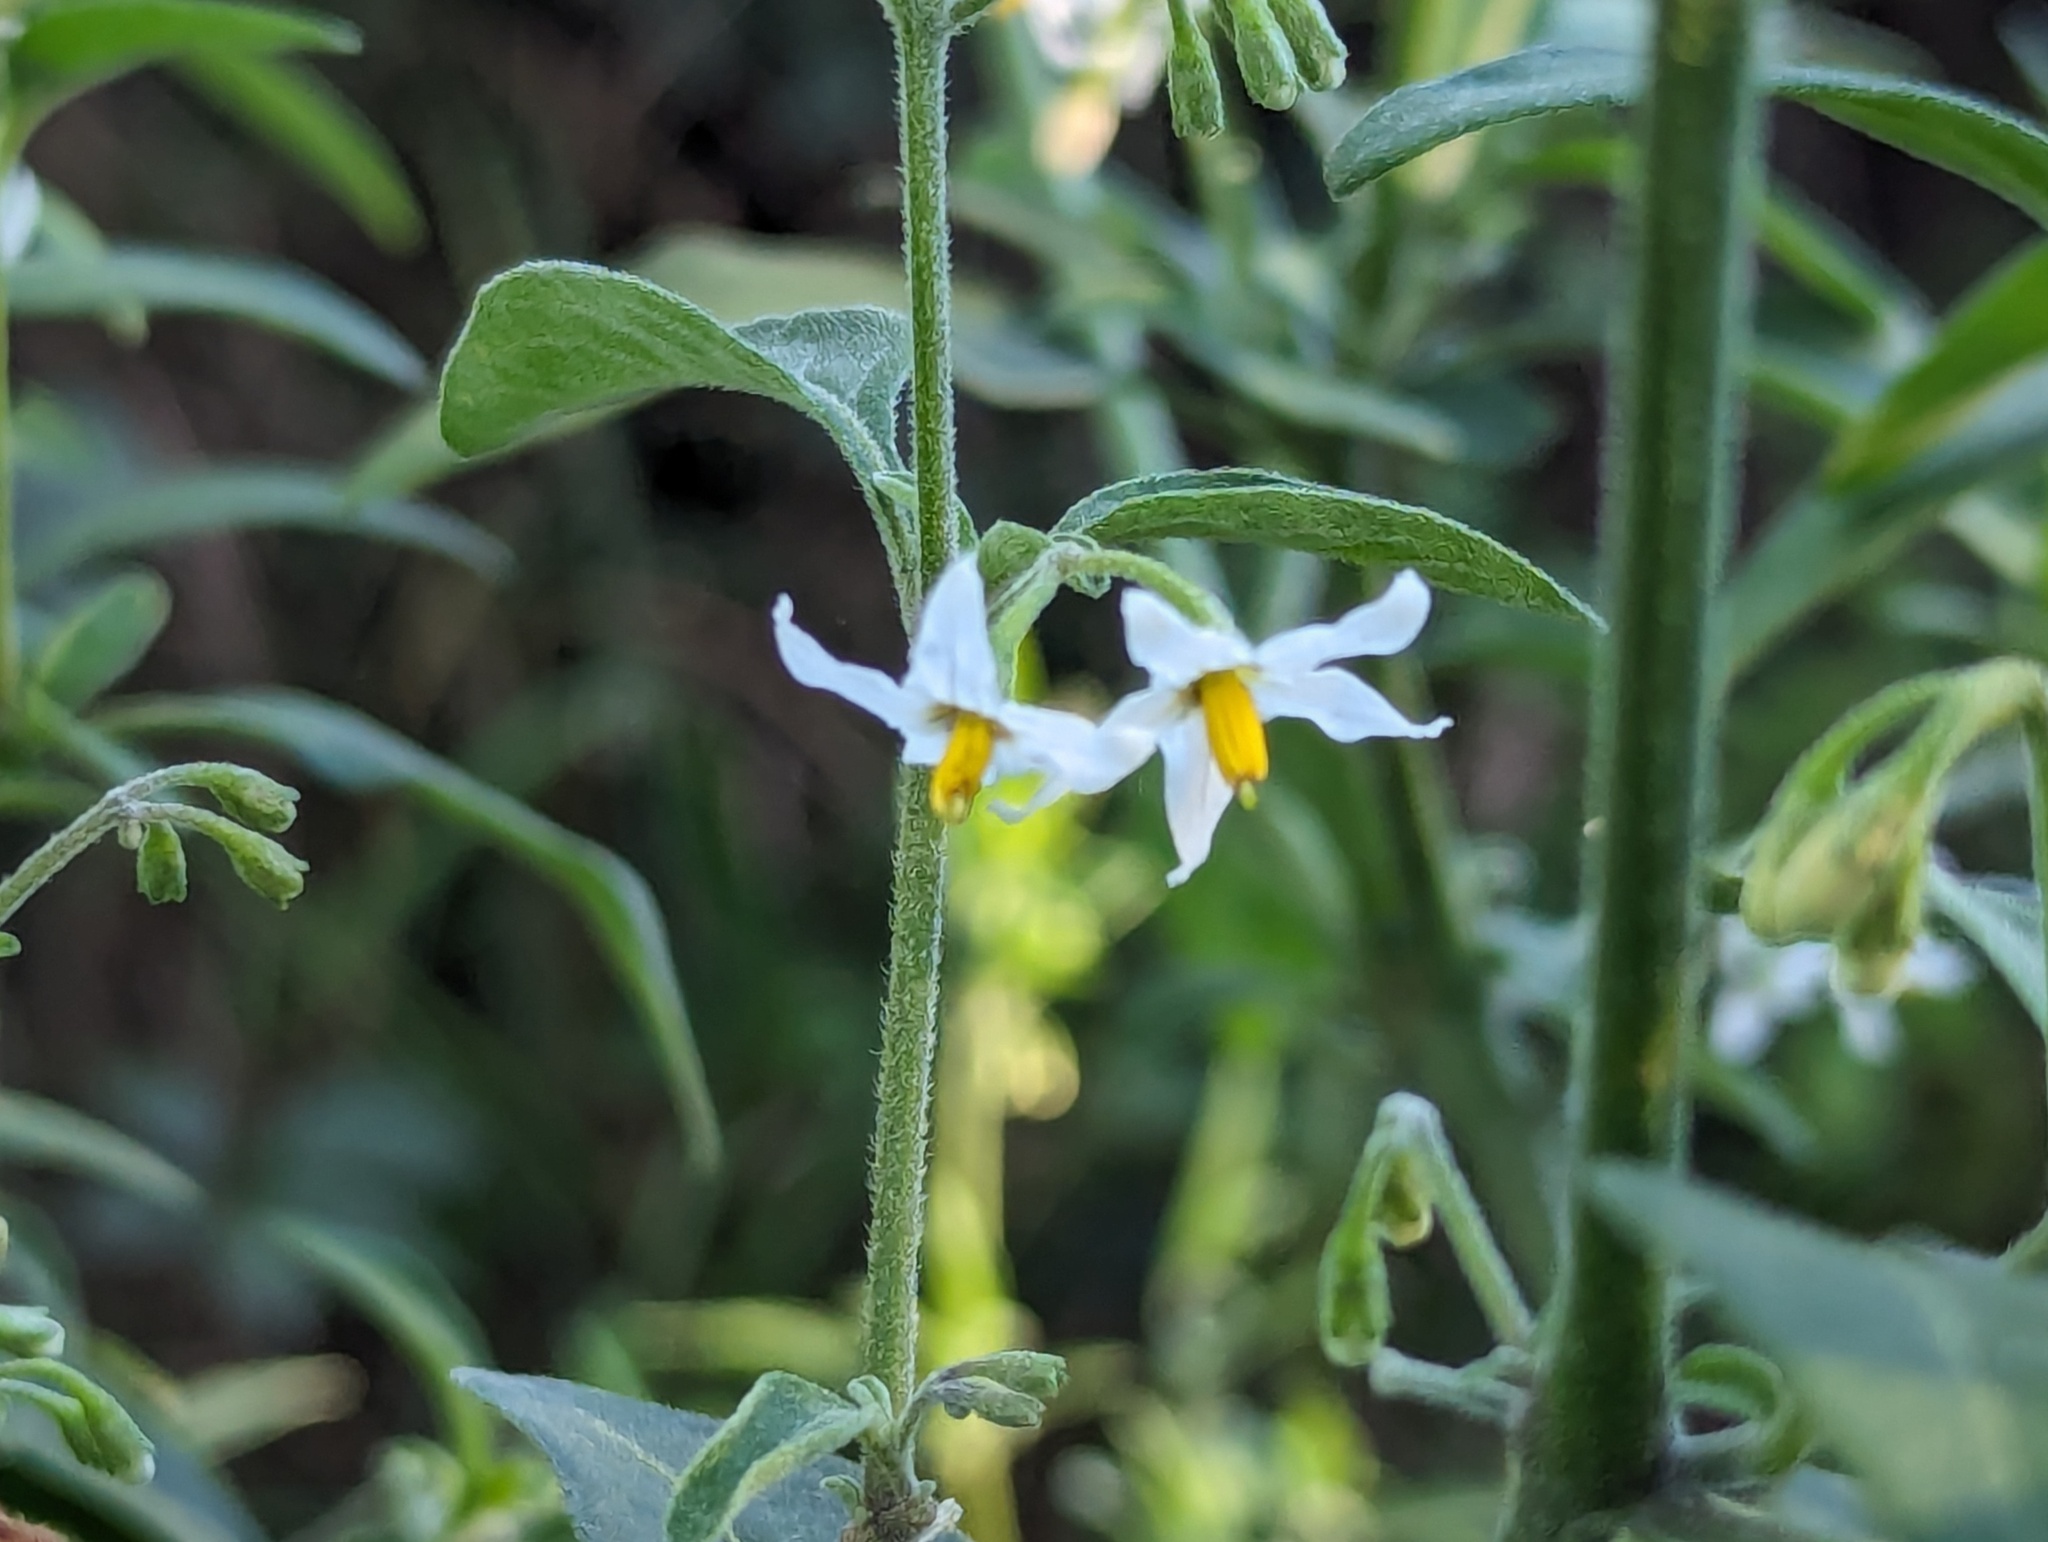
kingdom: Plantae
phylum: Tracheophyta
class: Magnoliopsida
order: Solanales
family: Solanaceae
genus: Solanum
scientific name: Solanum chenopodioides
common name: Tall nightshade
